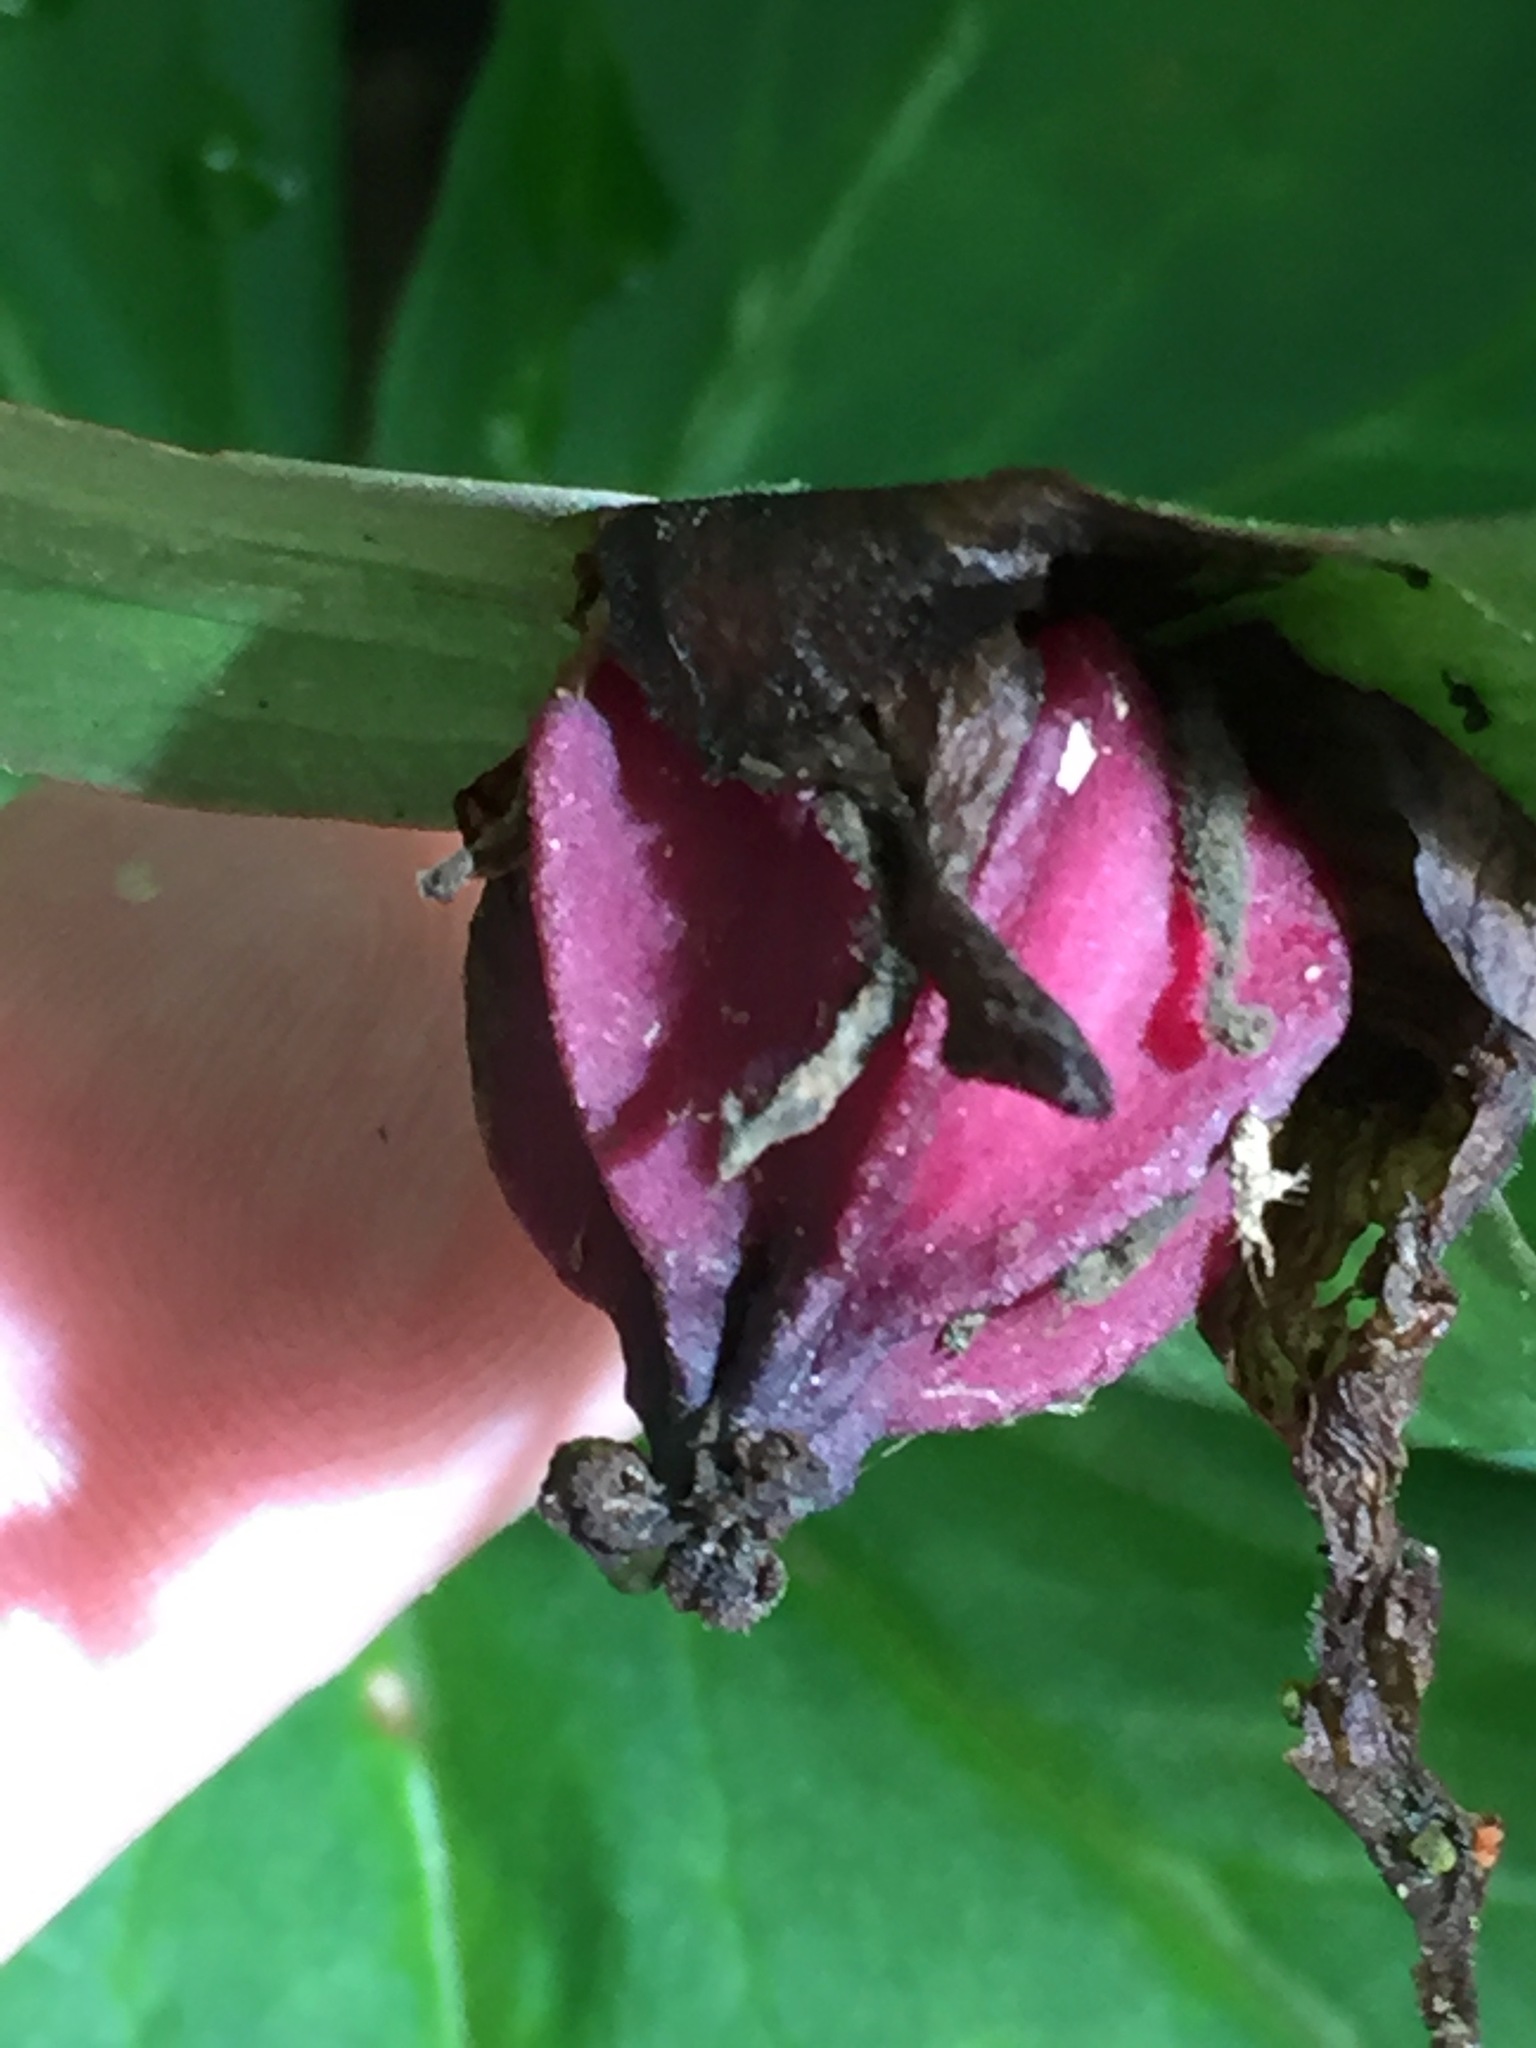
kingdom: Plantae
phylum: Tracheophyta
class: Liliopsida
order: Liliales
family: Melanthiaceae
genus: Trillium
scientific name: Trillium erectum
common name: Purple trillium
